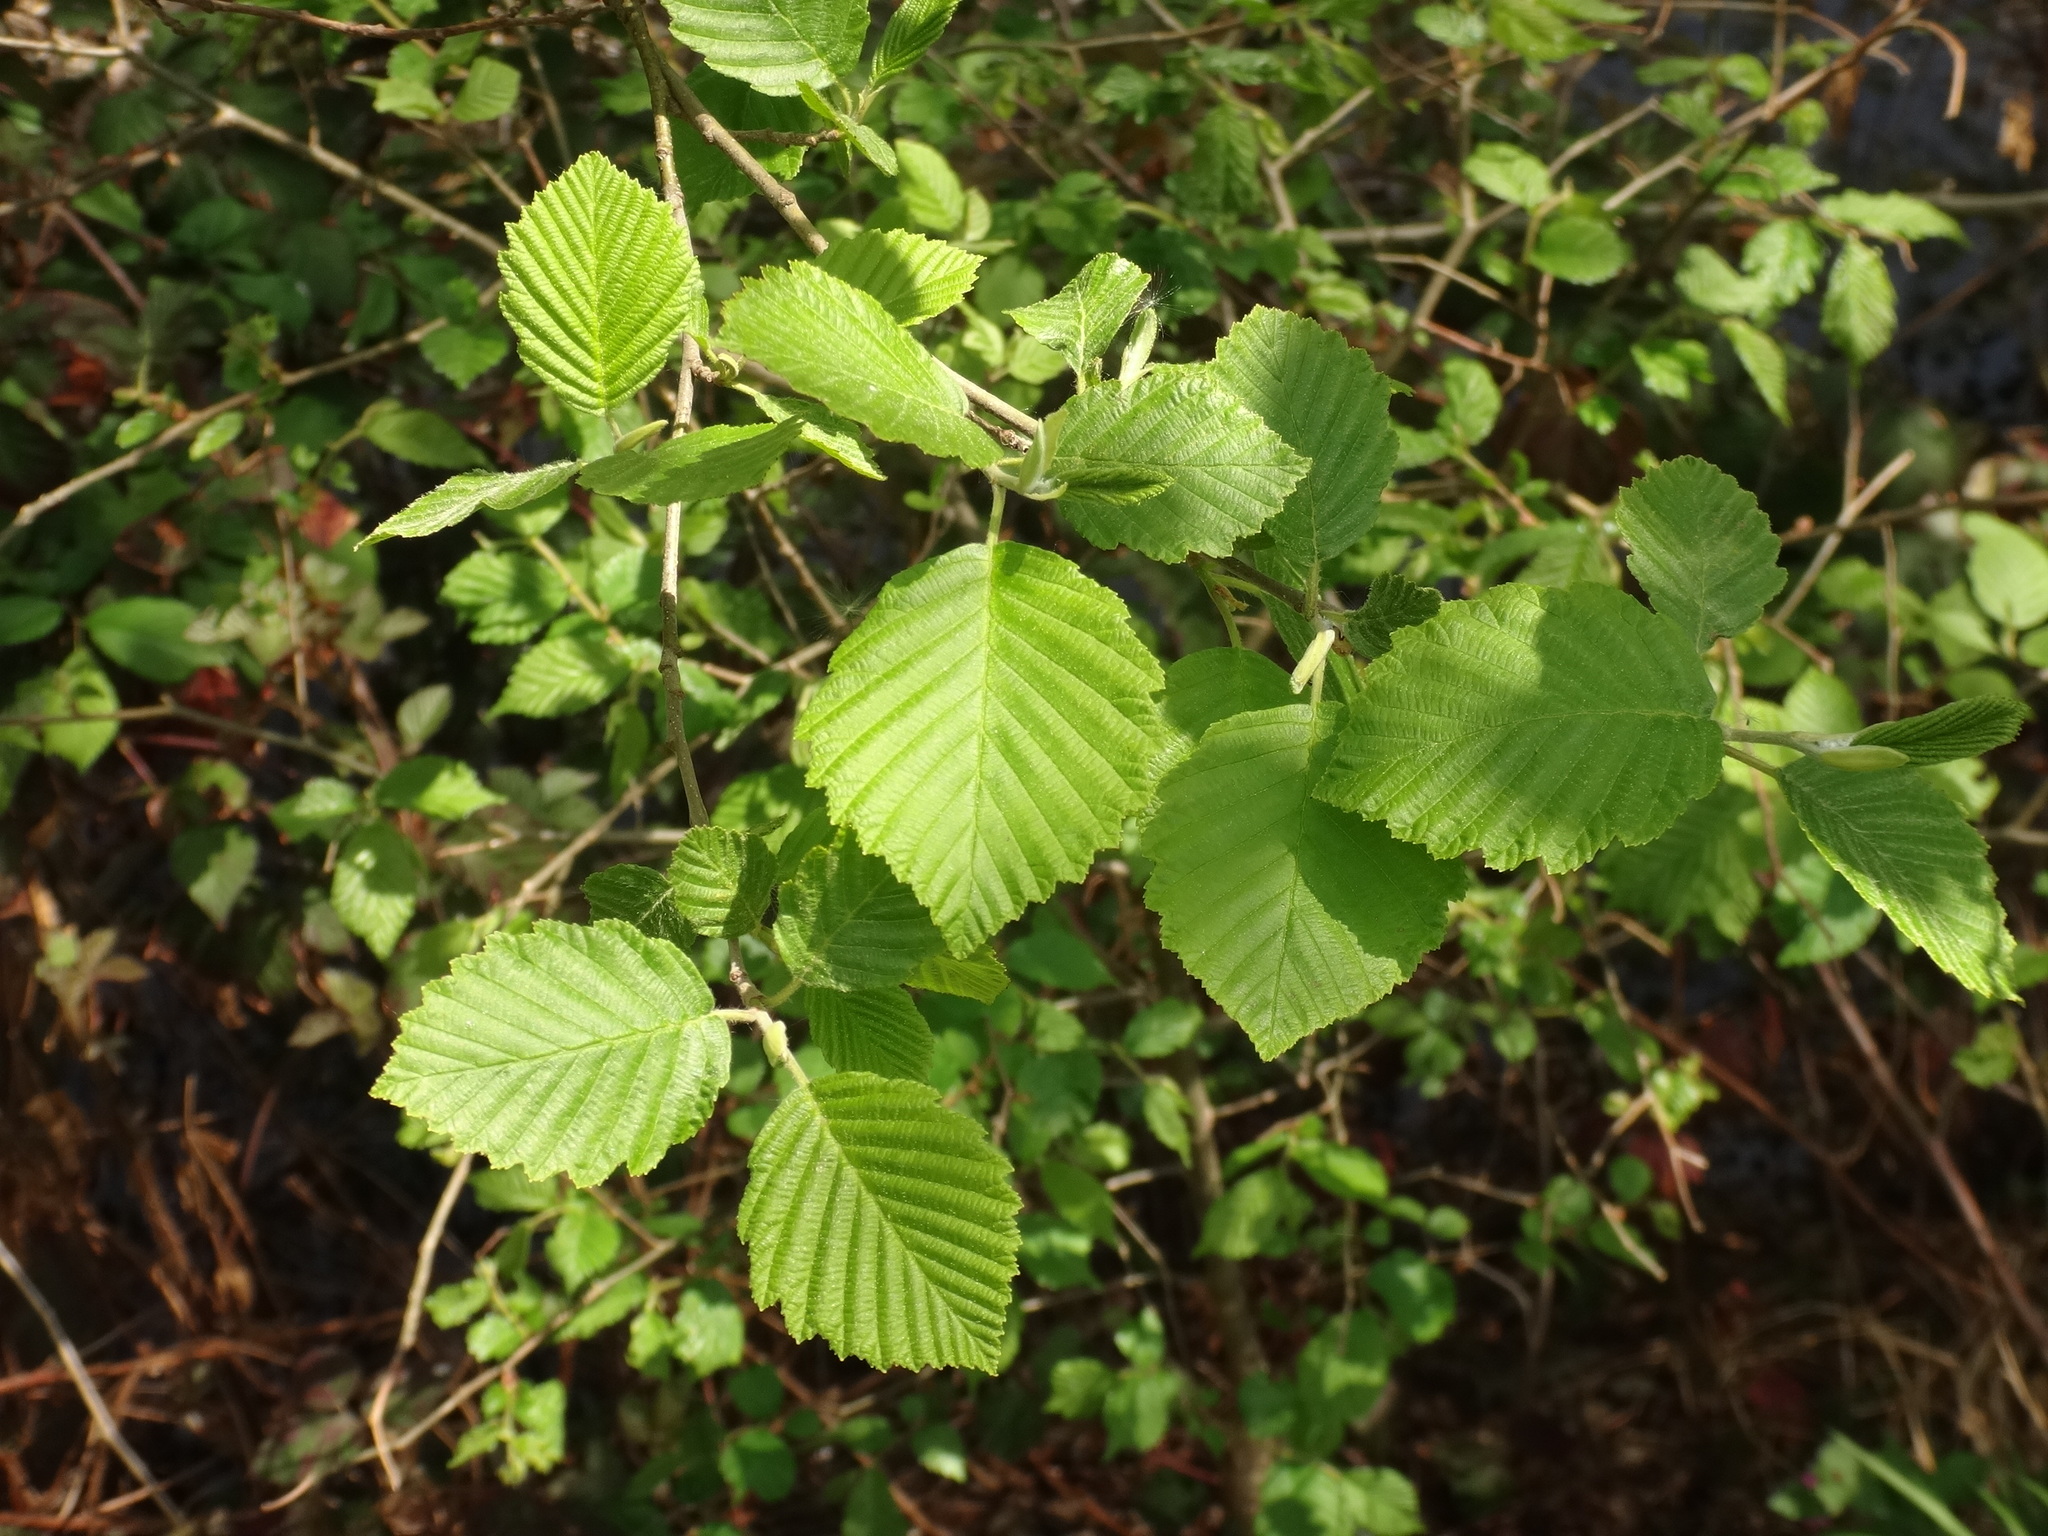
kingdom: Plantae
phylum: Tracheophyta
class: Magnoliopsida
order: Fagales
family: Betulaceae
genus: Alnus
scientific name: Alnus incana
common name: Grey alder
